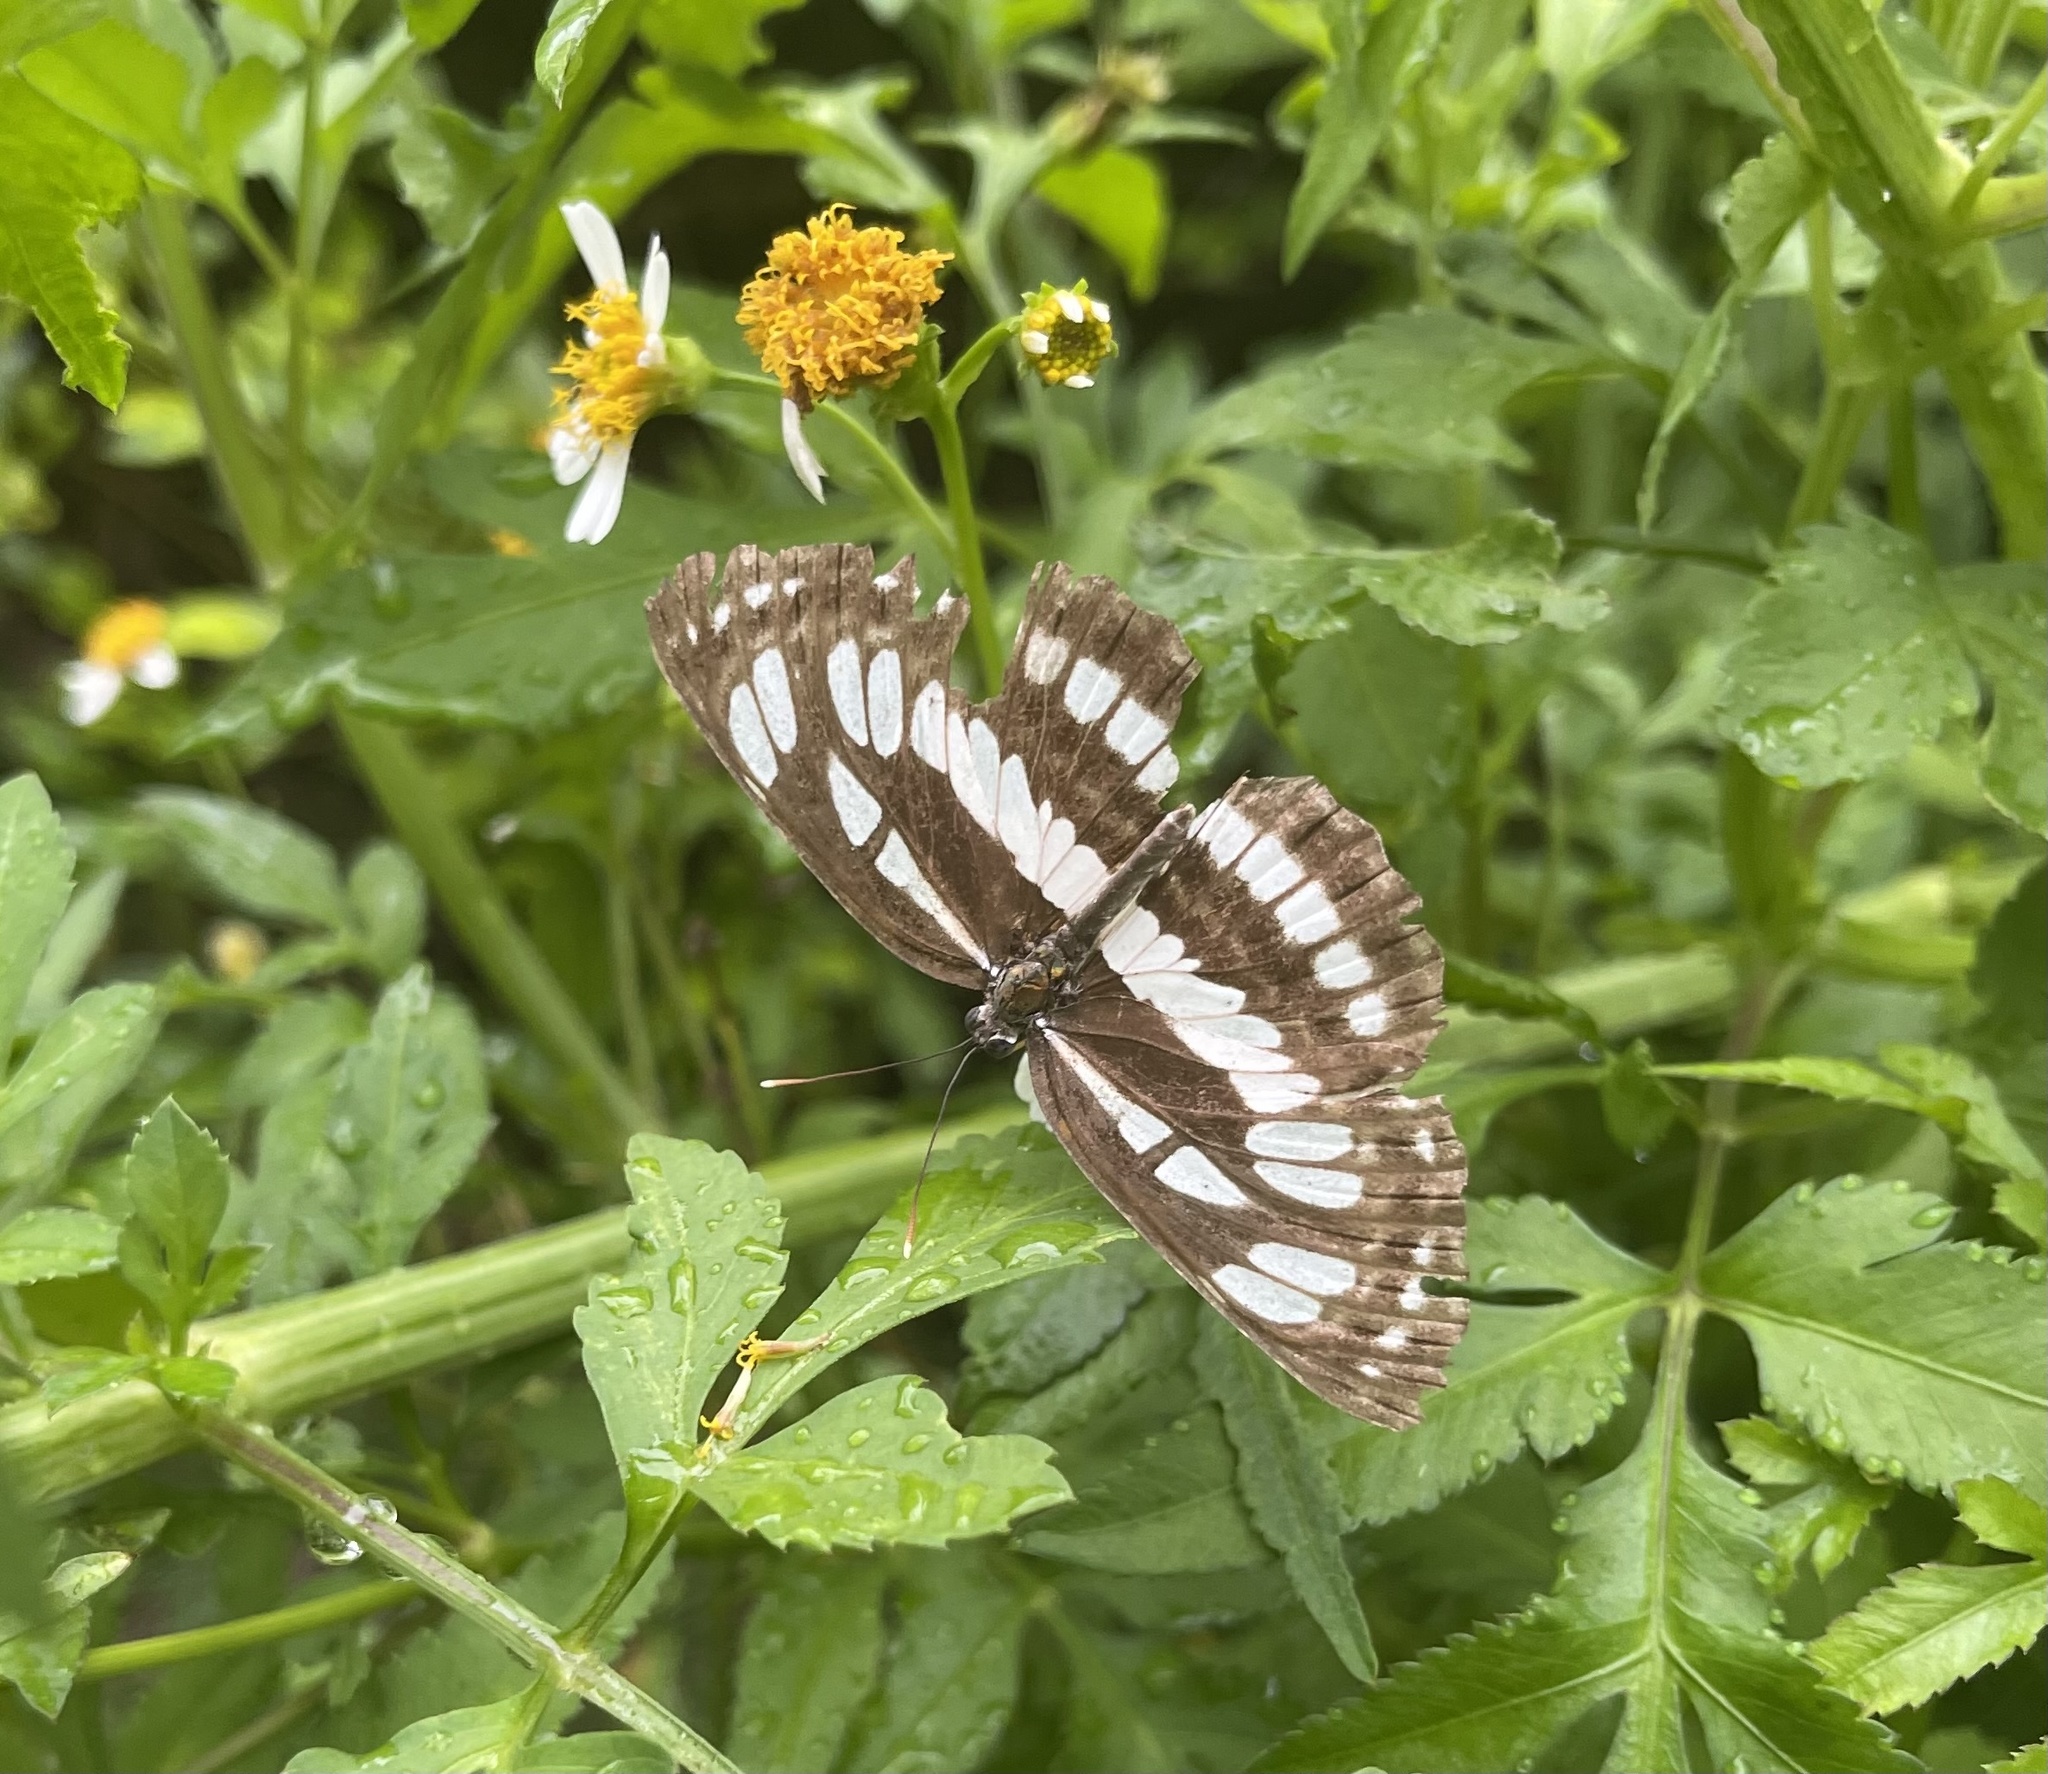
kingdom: Animalia
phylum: Arthropoda
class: Insecta
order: Lepidoptera
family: Nymphalidae
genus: Neptis
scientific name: Neptis hylas
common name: Common sailer
